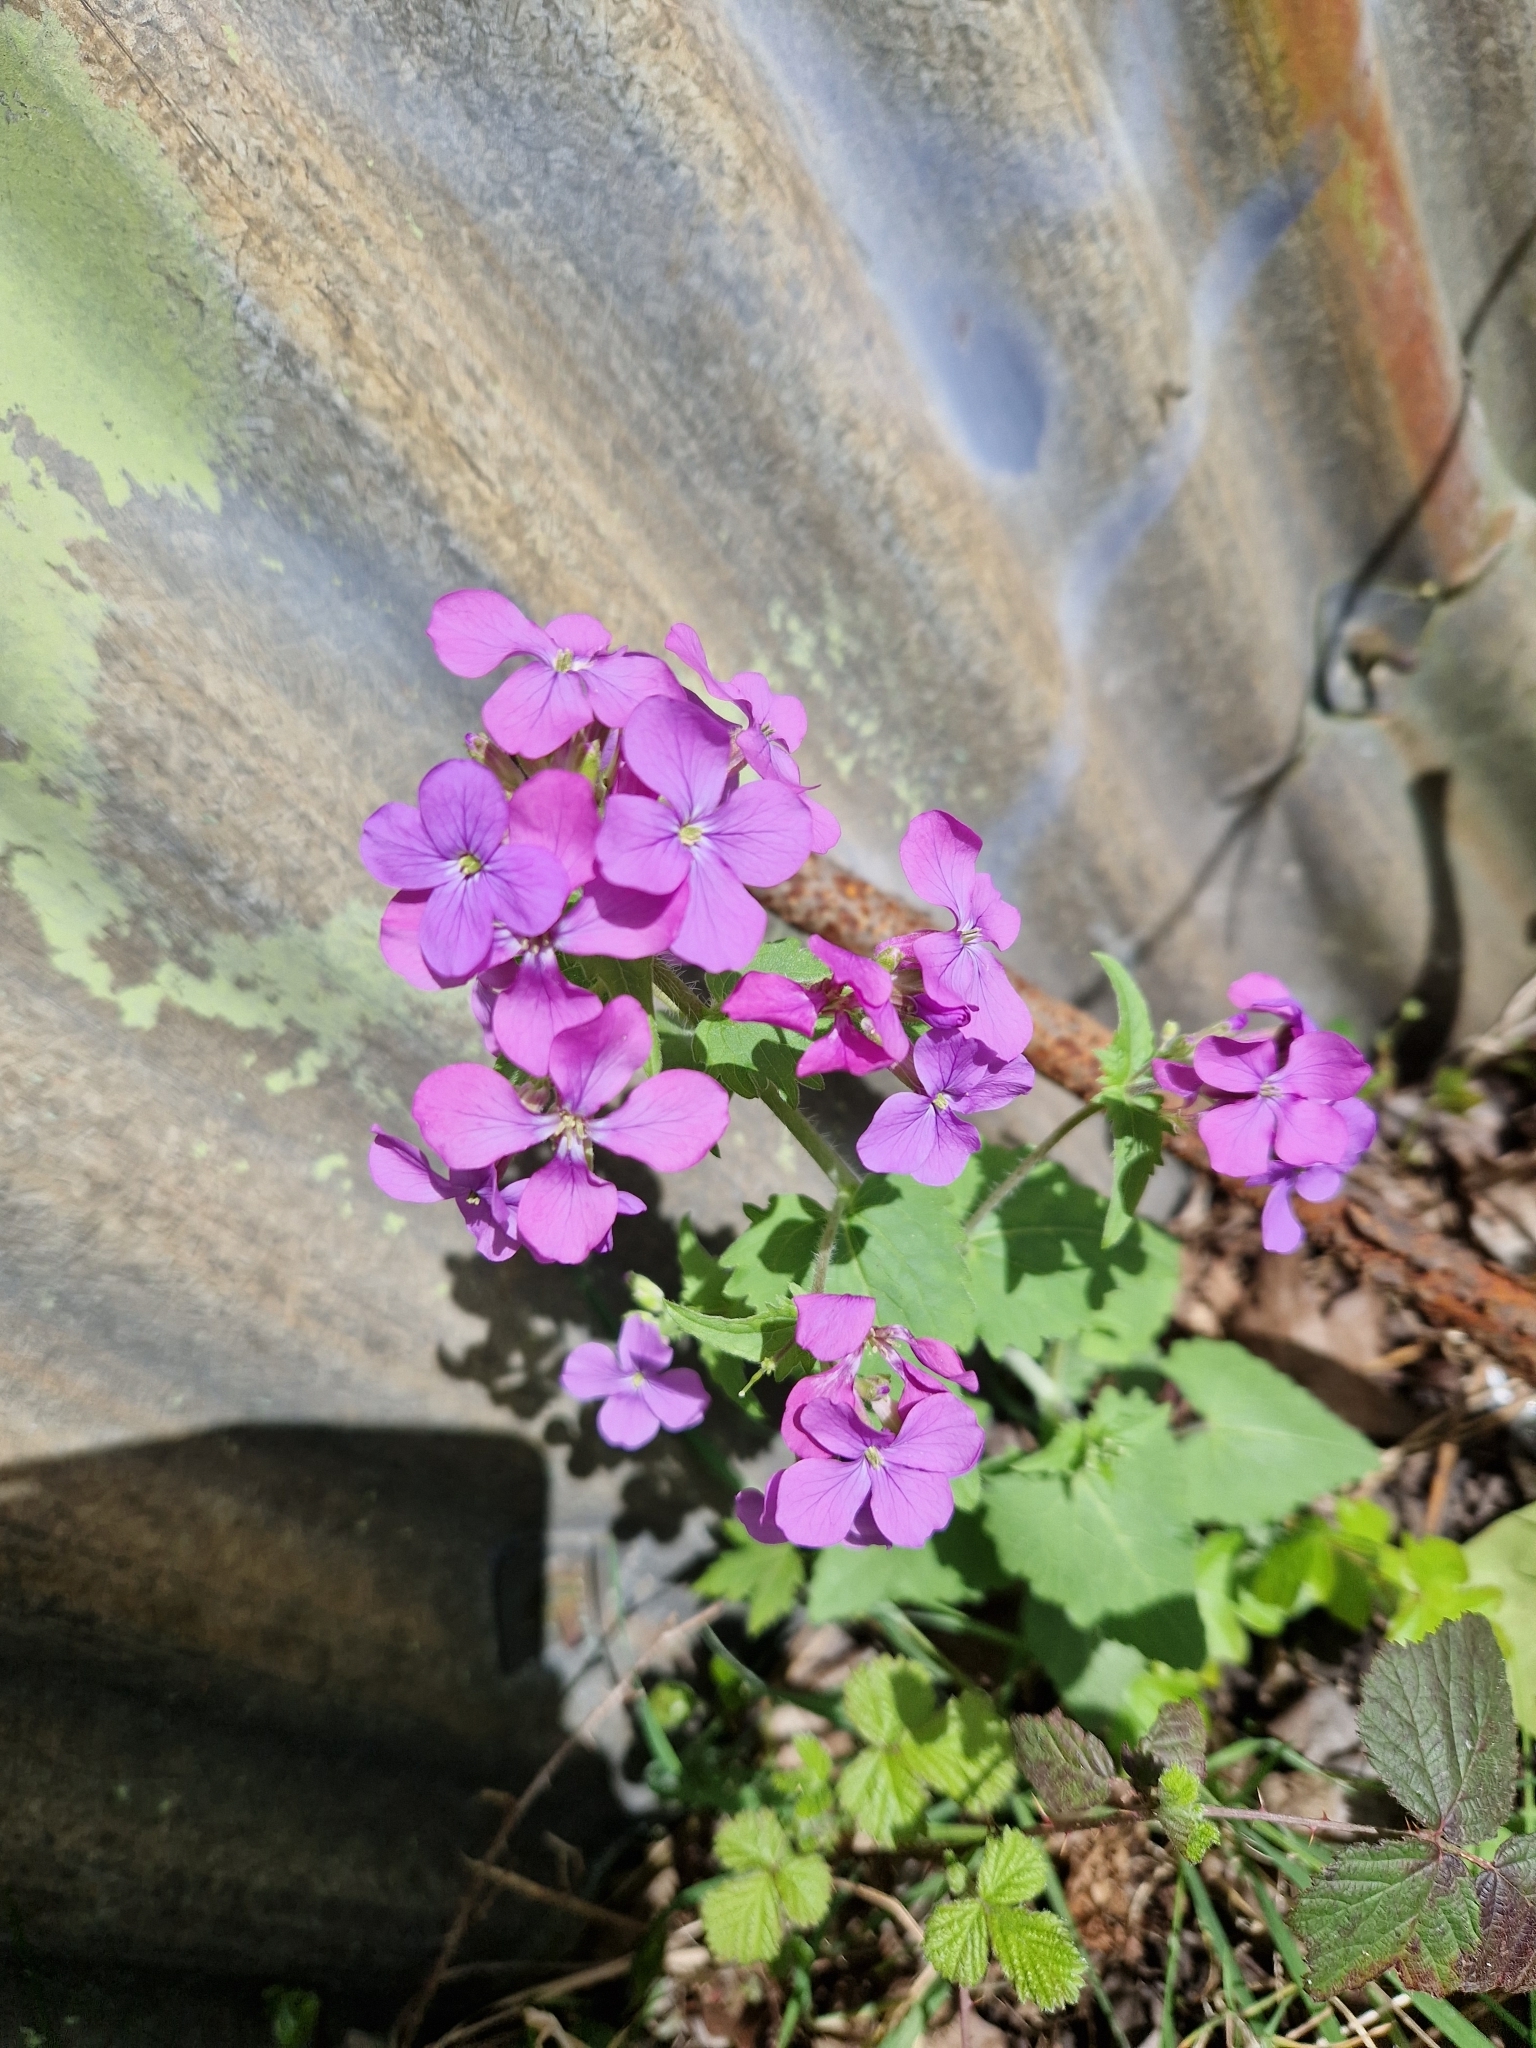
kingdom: Plantae
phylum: Tracheophyta
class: Magnoliopsida
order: Brassicales
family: Brassicaceae
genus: Lunaria
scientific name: Lunaria annua
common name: Honesty
